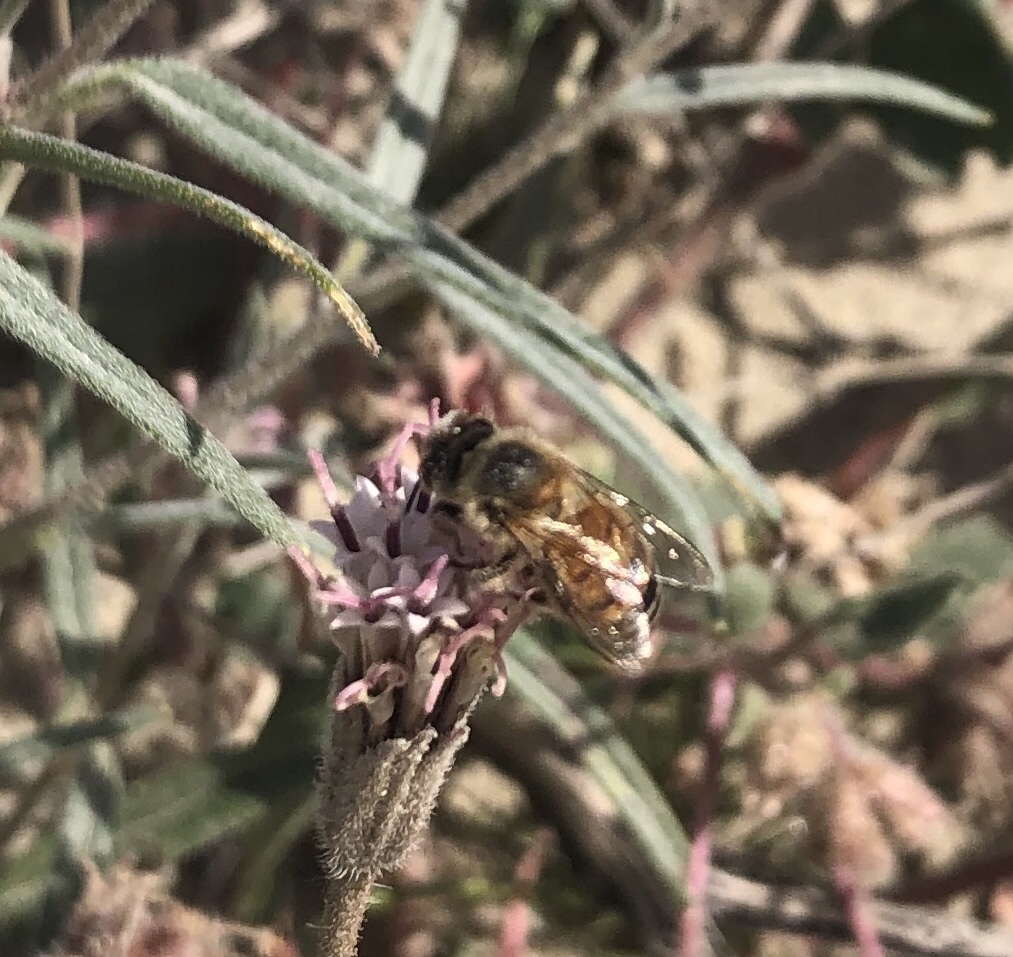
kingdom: Animalia
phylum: Arthropoda
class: Insecta
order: Hymenoptera
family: Apidae
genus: Apis
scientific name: Apis mellifera
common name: Honey bee
